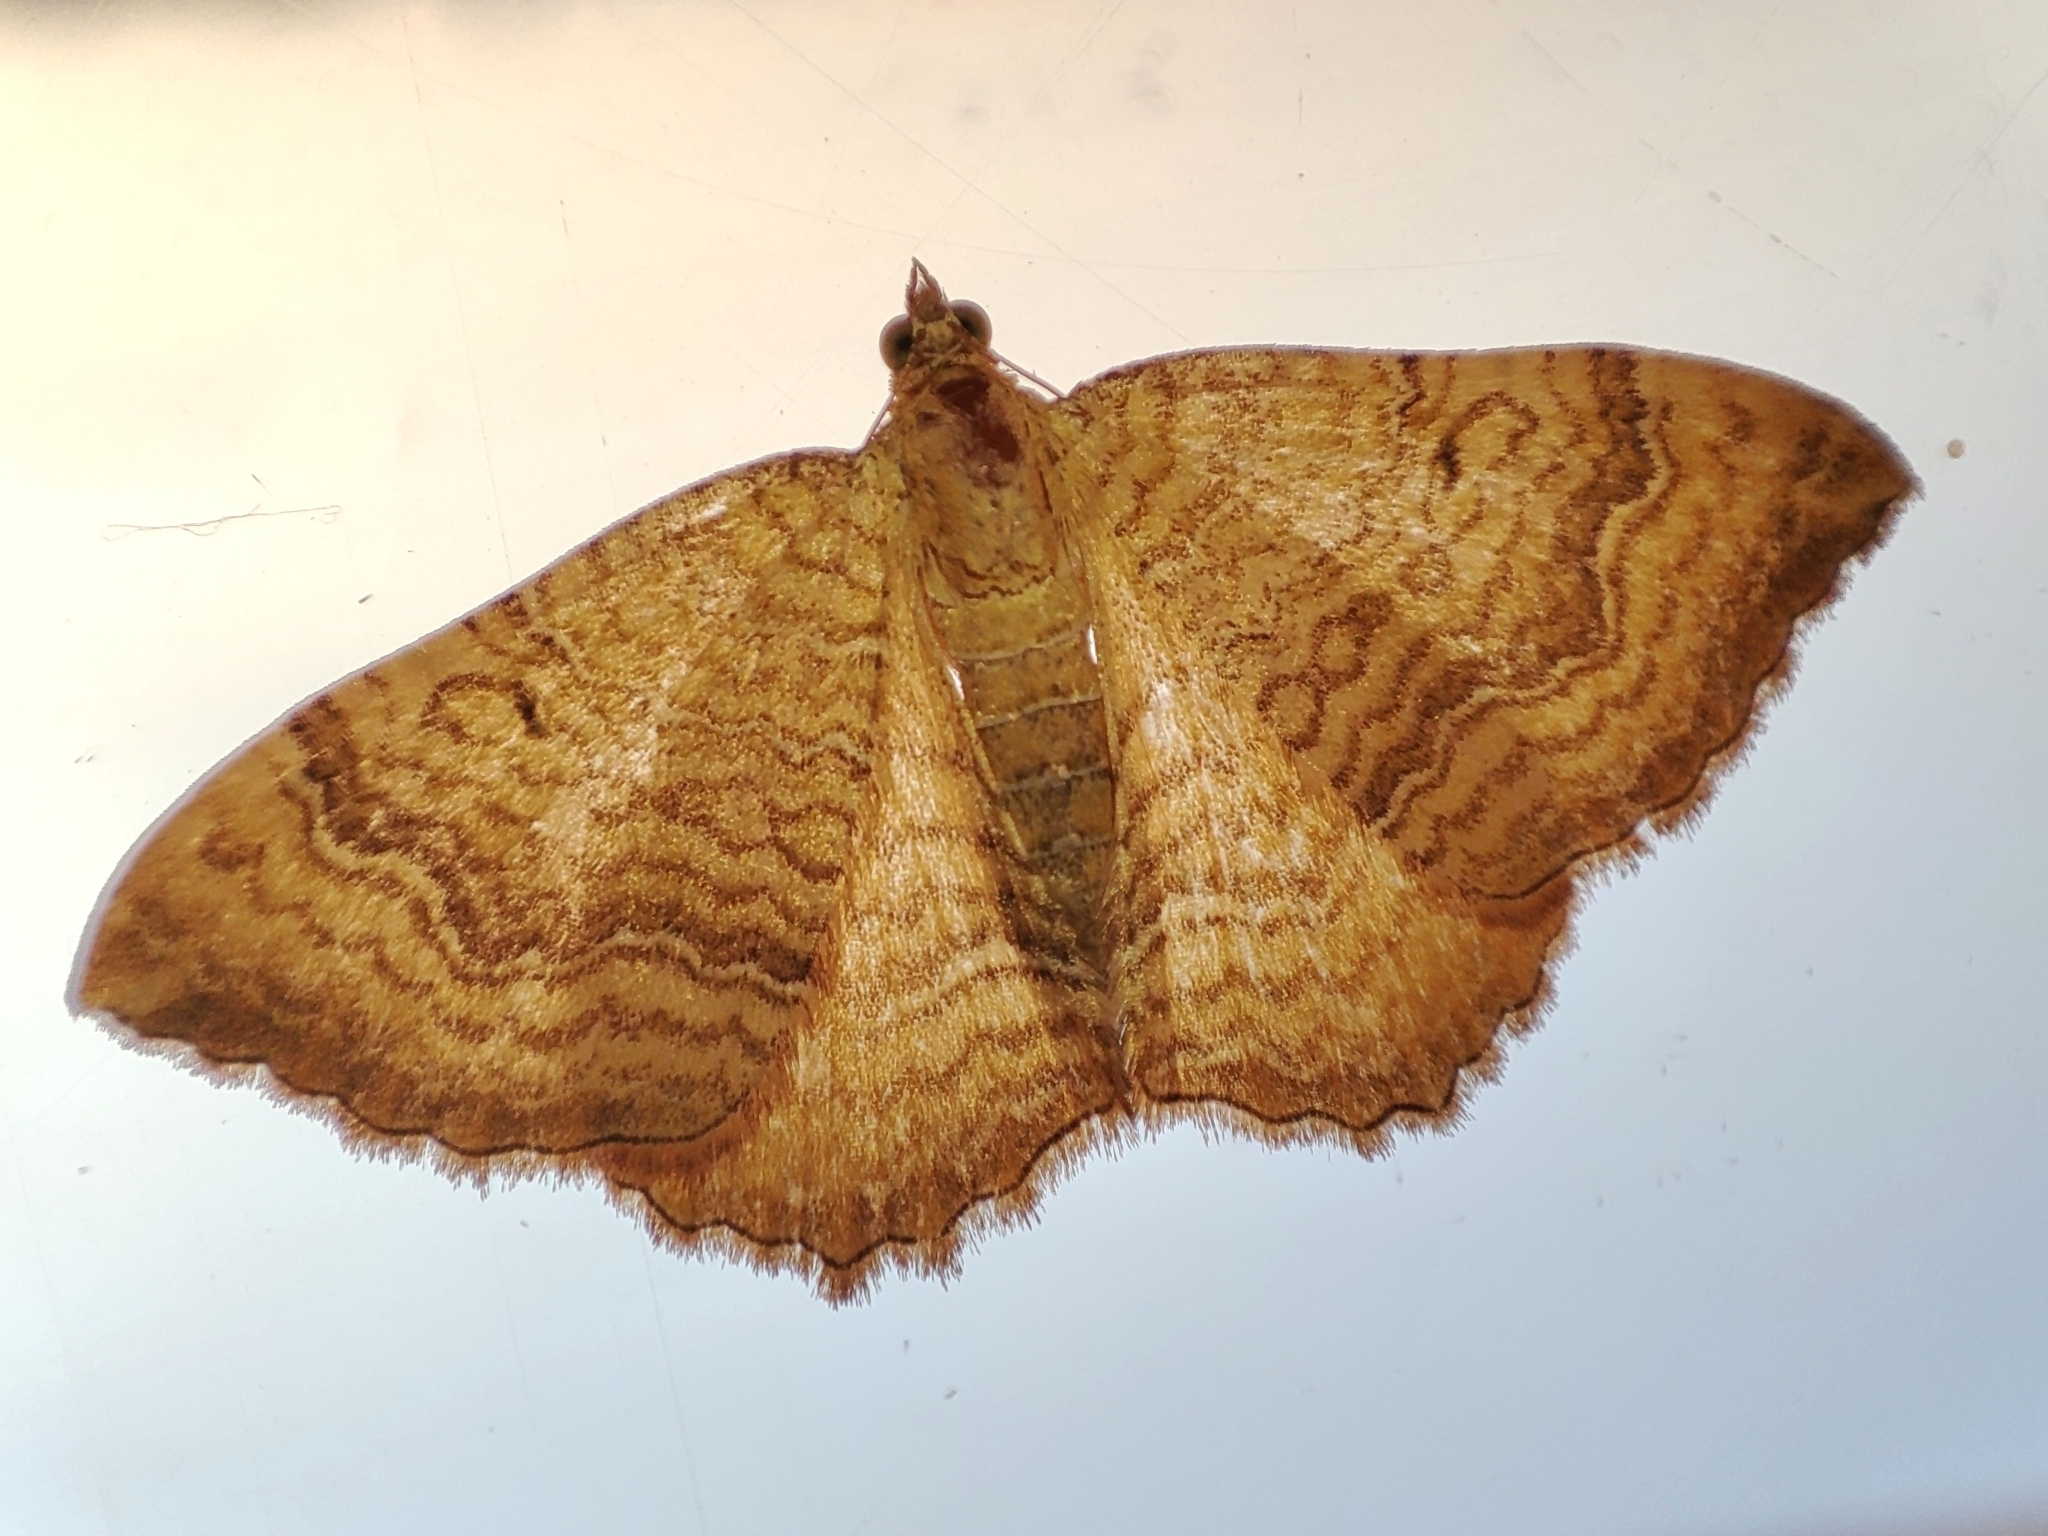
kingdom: Animalia
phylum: Arthropoda
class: Insecta
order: Lepidoptera
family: Geometridae
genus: Camptogramma
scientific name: Camptogramma bilineata
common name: Yellow shell
